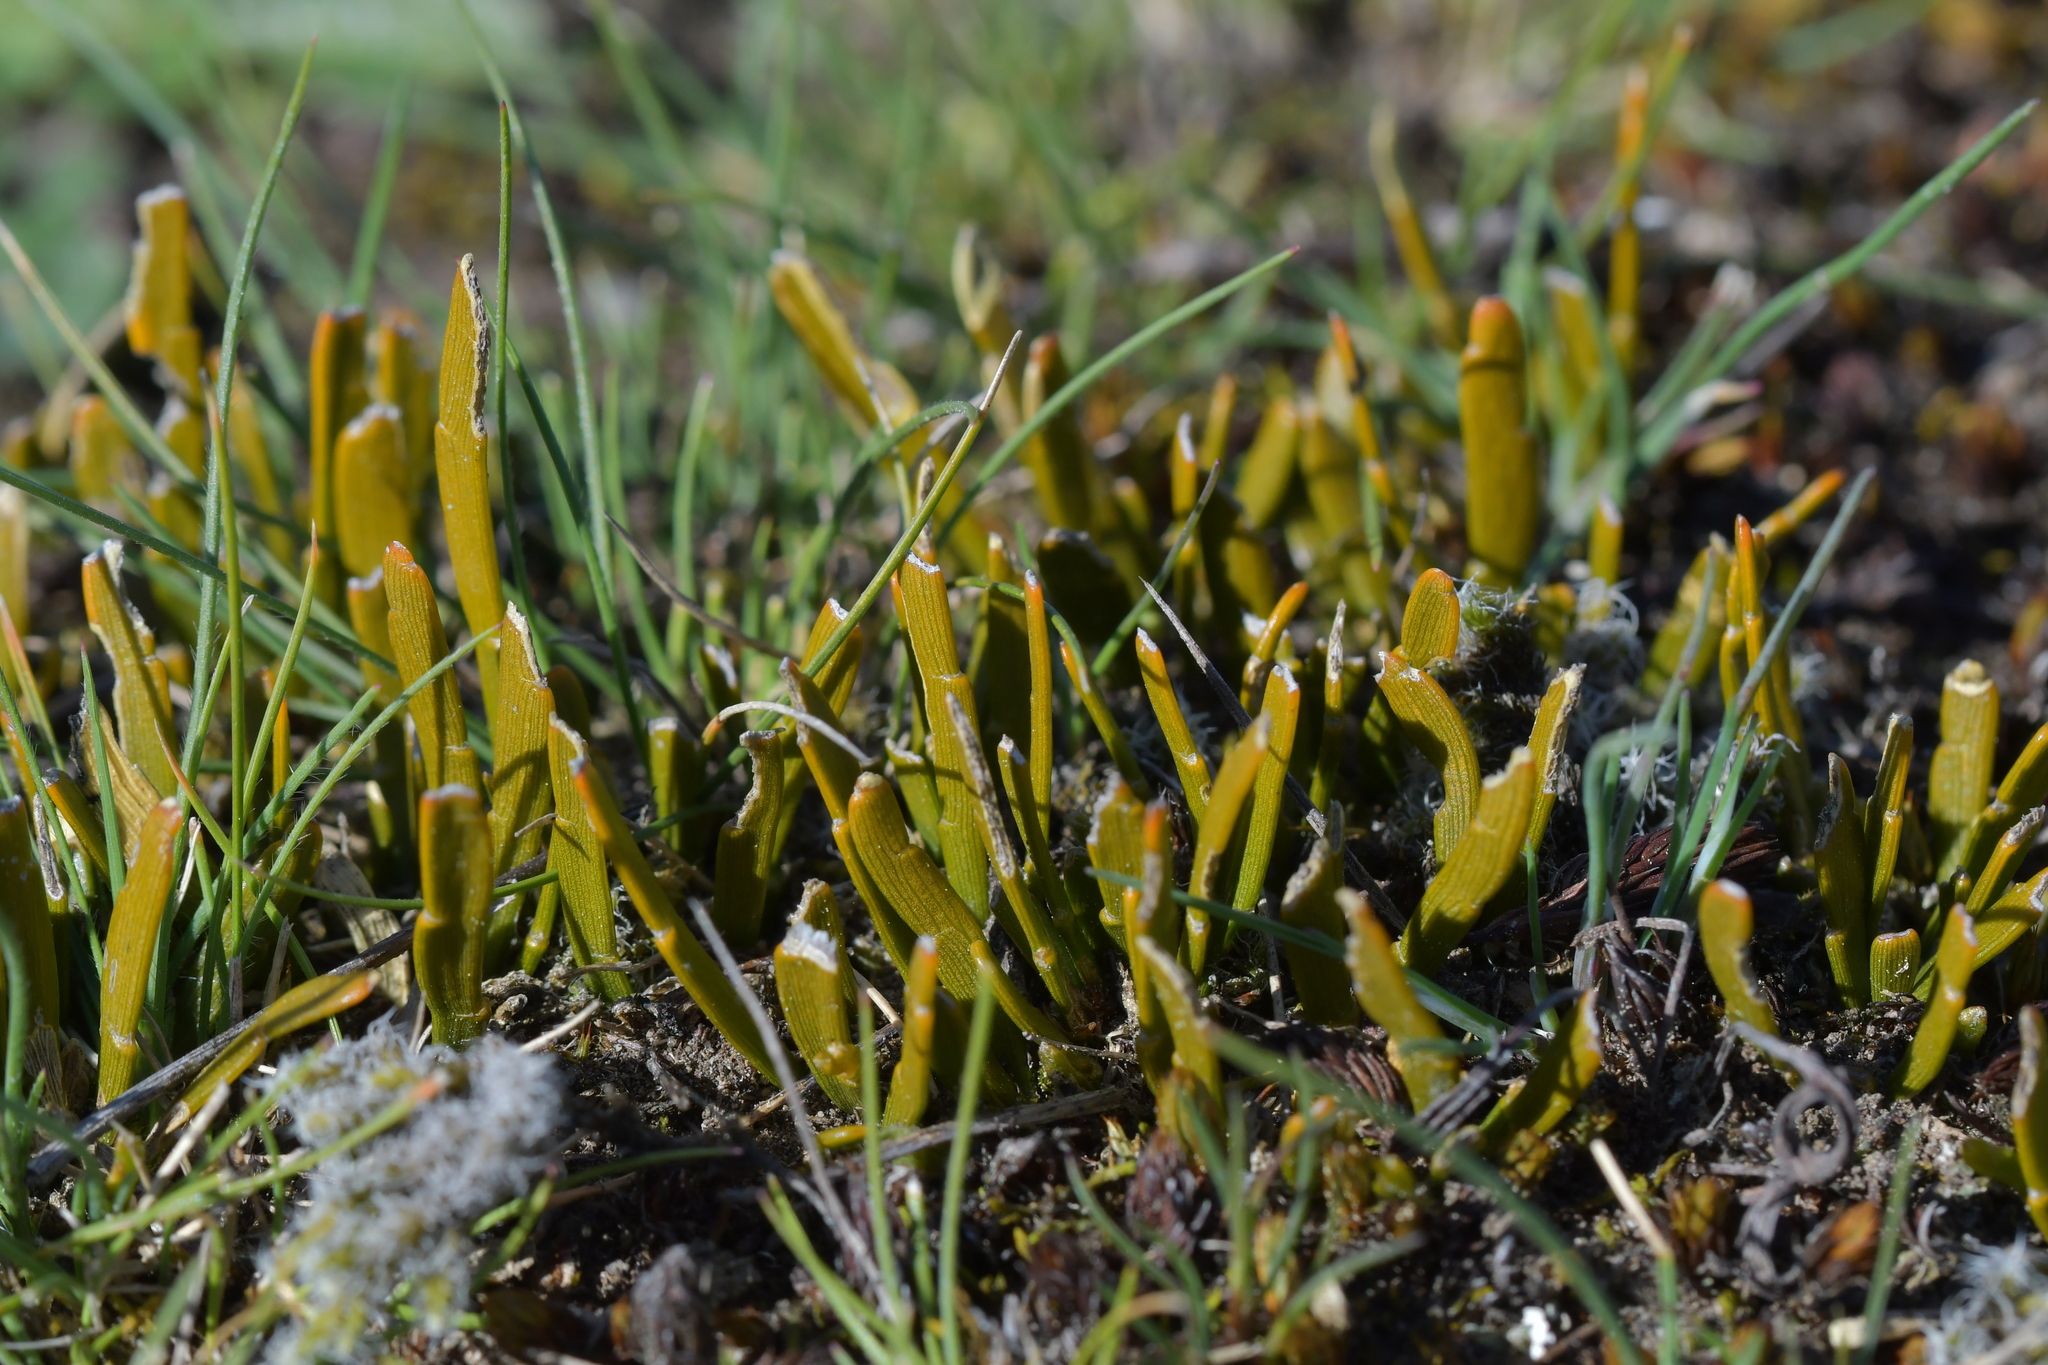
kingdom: Plantae
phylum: Tracheophyta
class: Magnoliopsida
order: Fabales
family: Fabaceae
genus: Carmichaelia
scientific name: Carmichaelia corrugata
